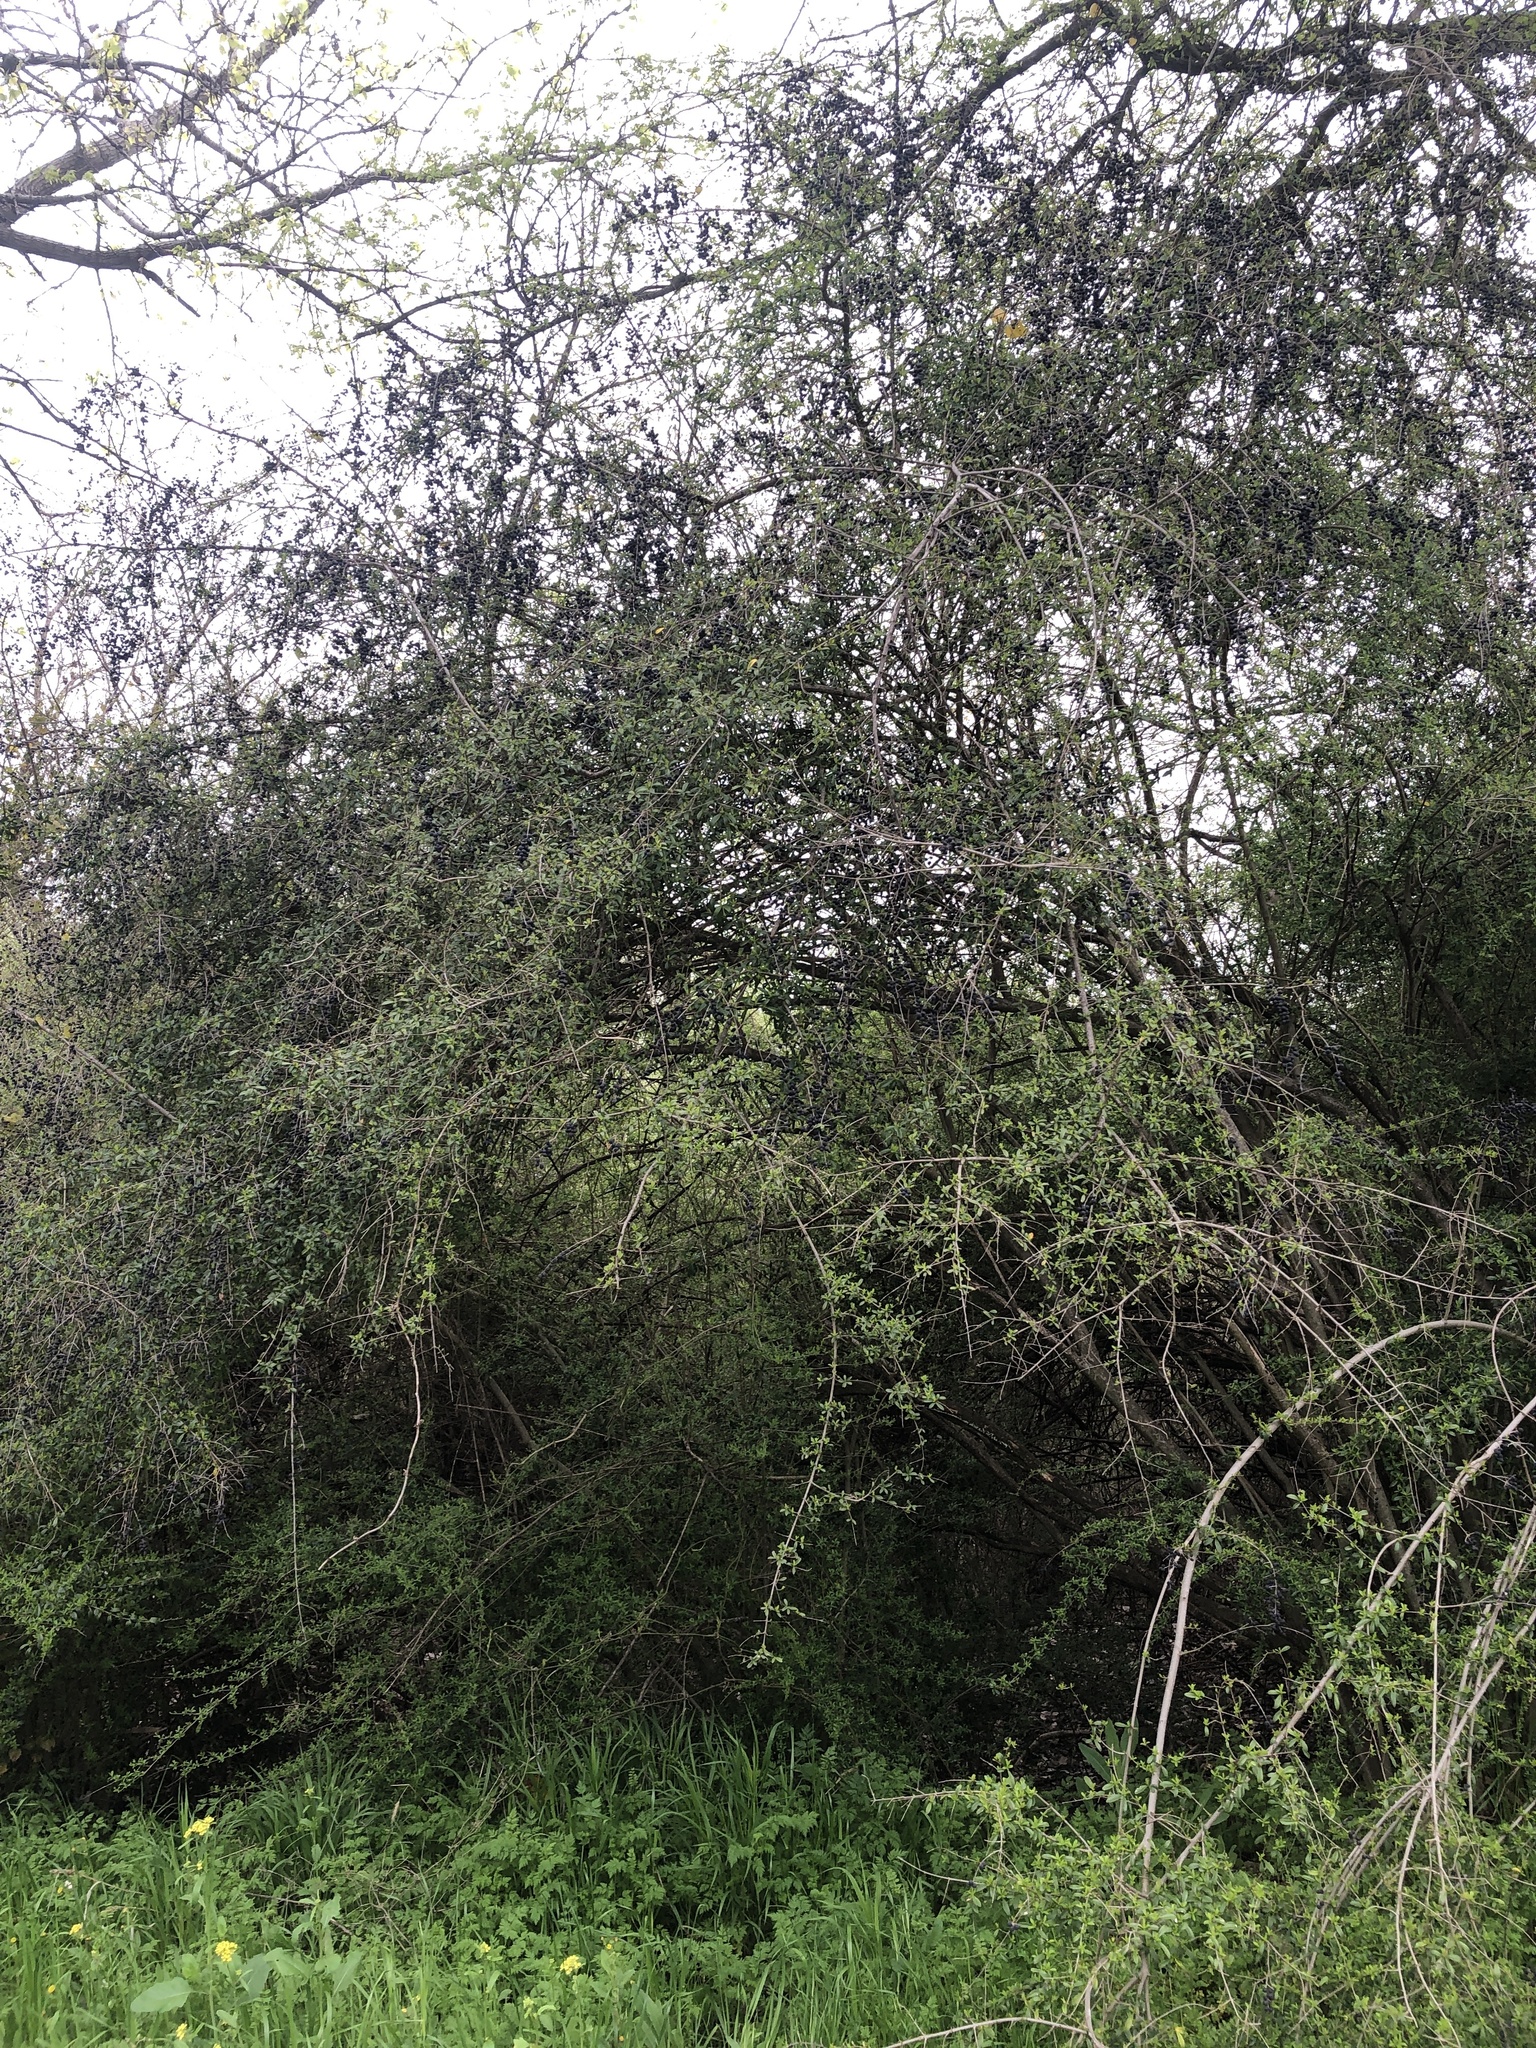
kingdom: Plantae
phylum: Tracheophyta
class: Magnoliopsida
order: Lamiales
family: Oleaceae
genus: Ligustrum
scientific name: Ligustrum quihoui
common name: Waxyleaf privet
